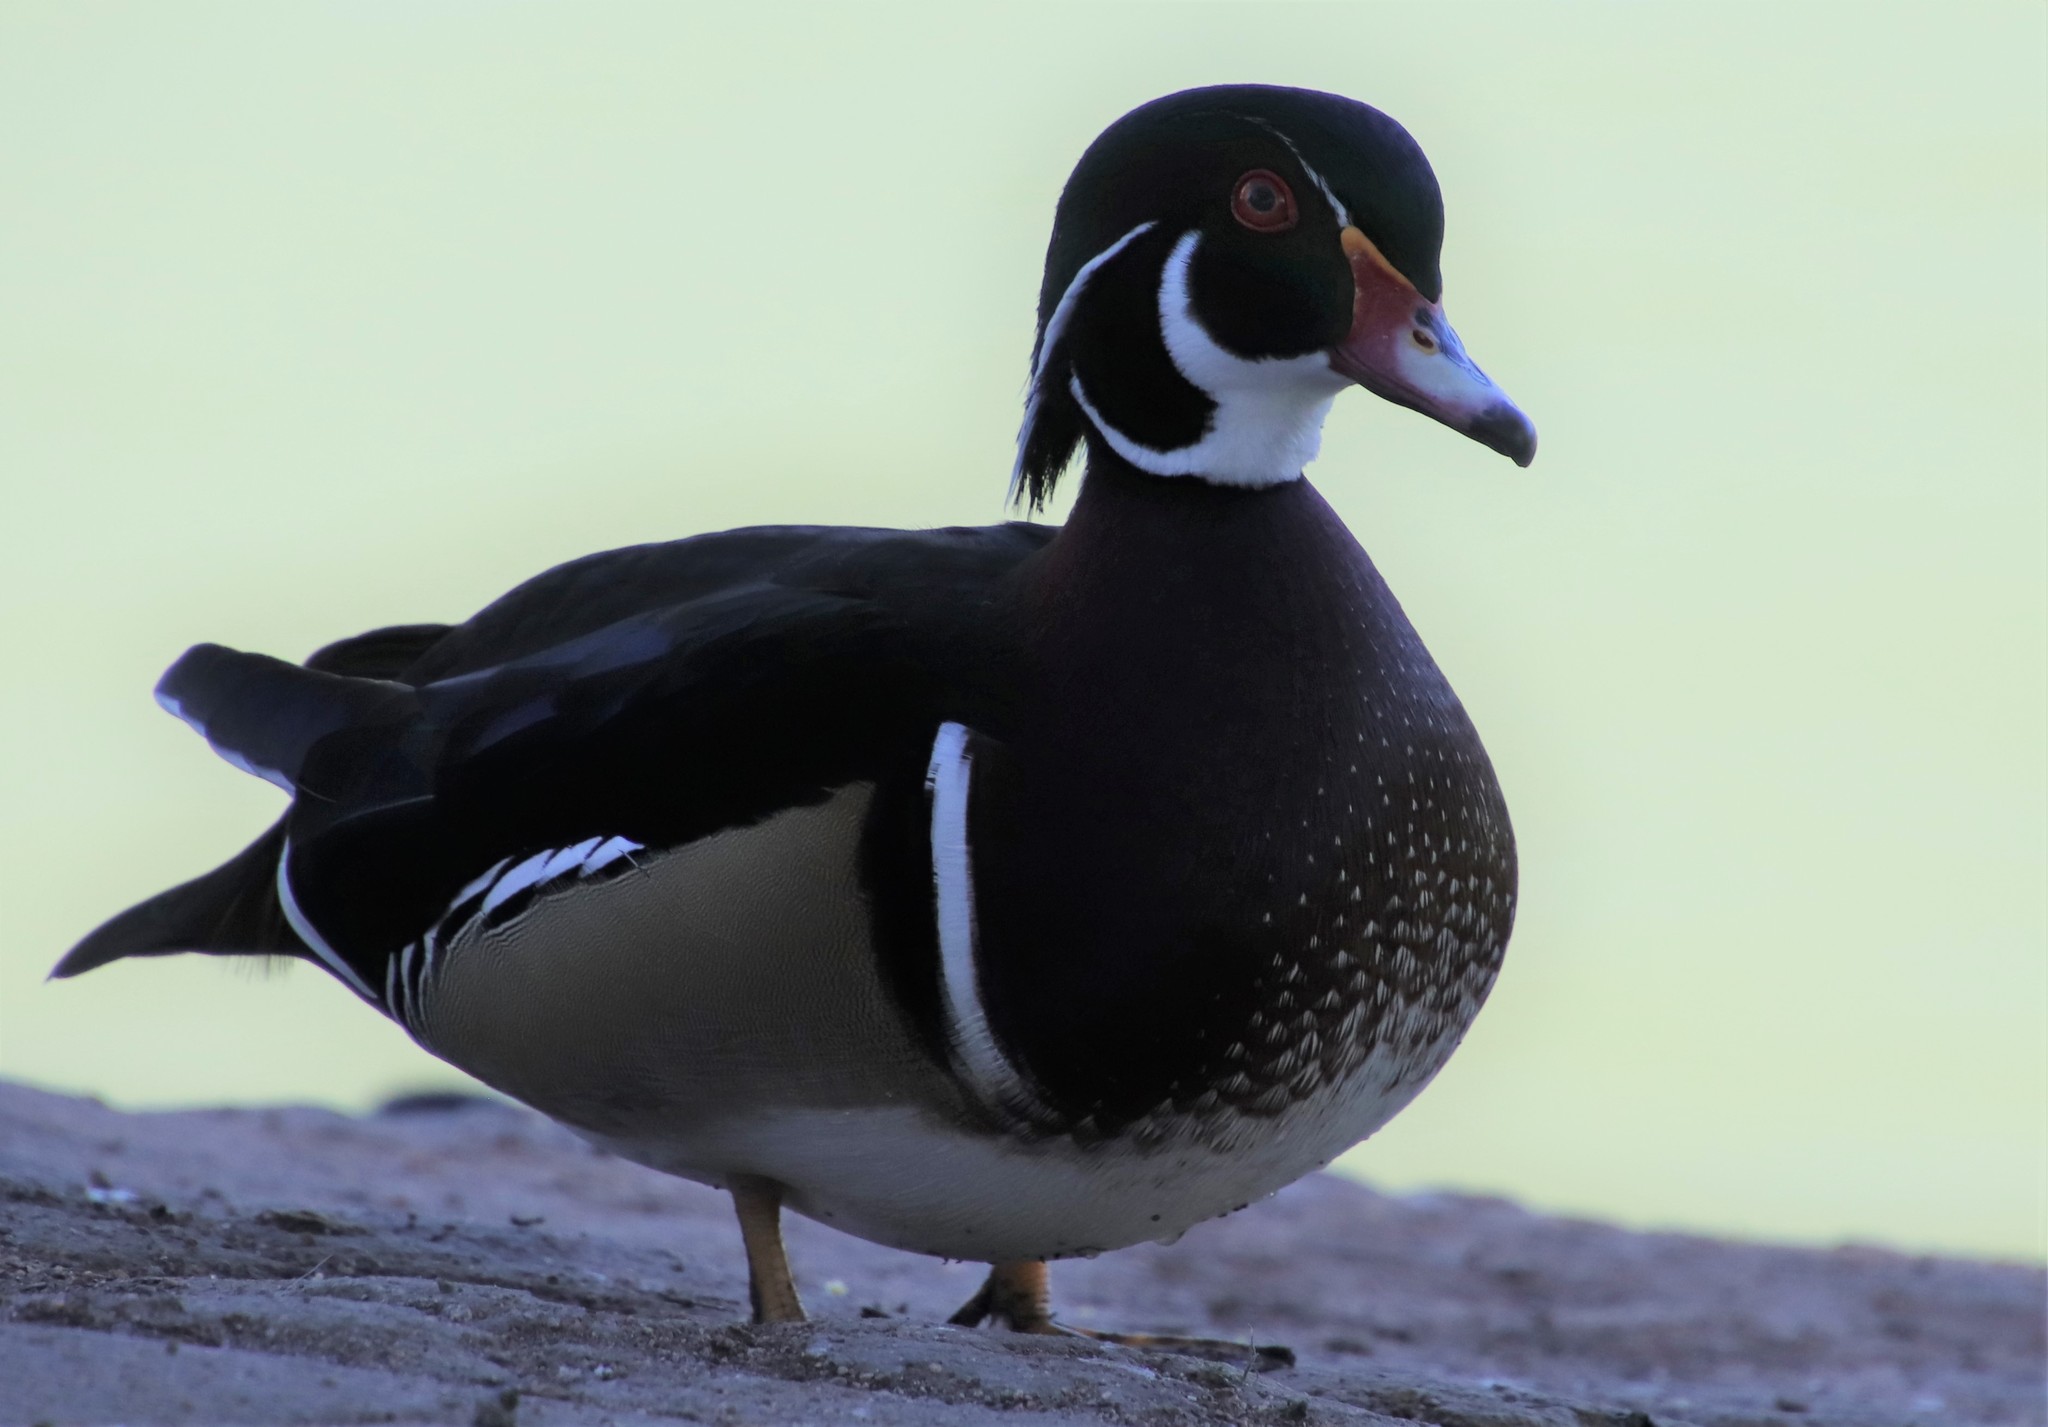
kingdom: Animalia
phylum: Chordata
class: Aves
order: Anseriformes
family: Anatidae
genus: Aix
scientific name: Aix sponsa
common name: Wood duck
